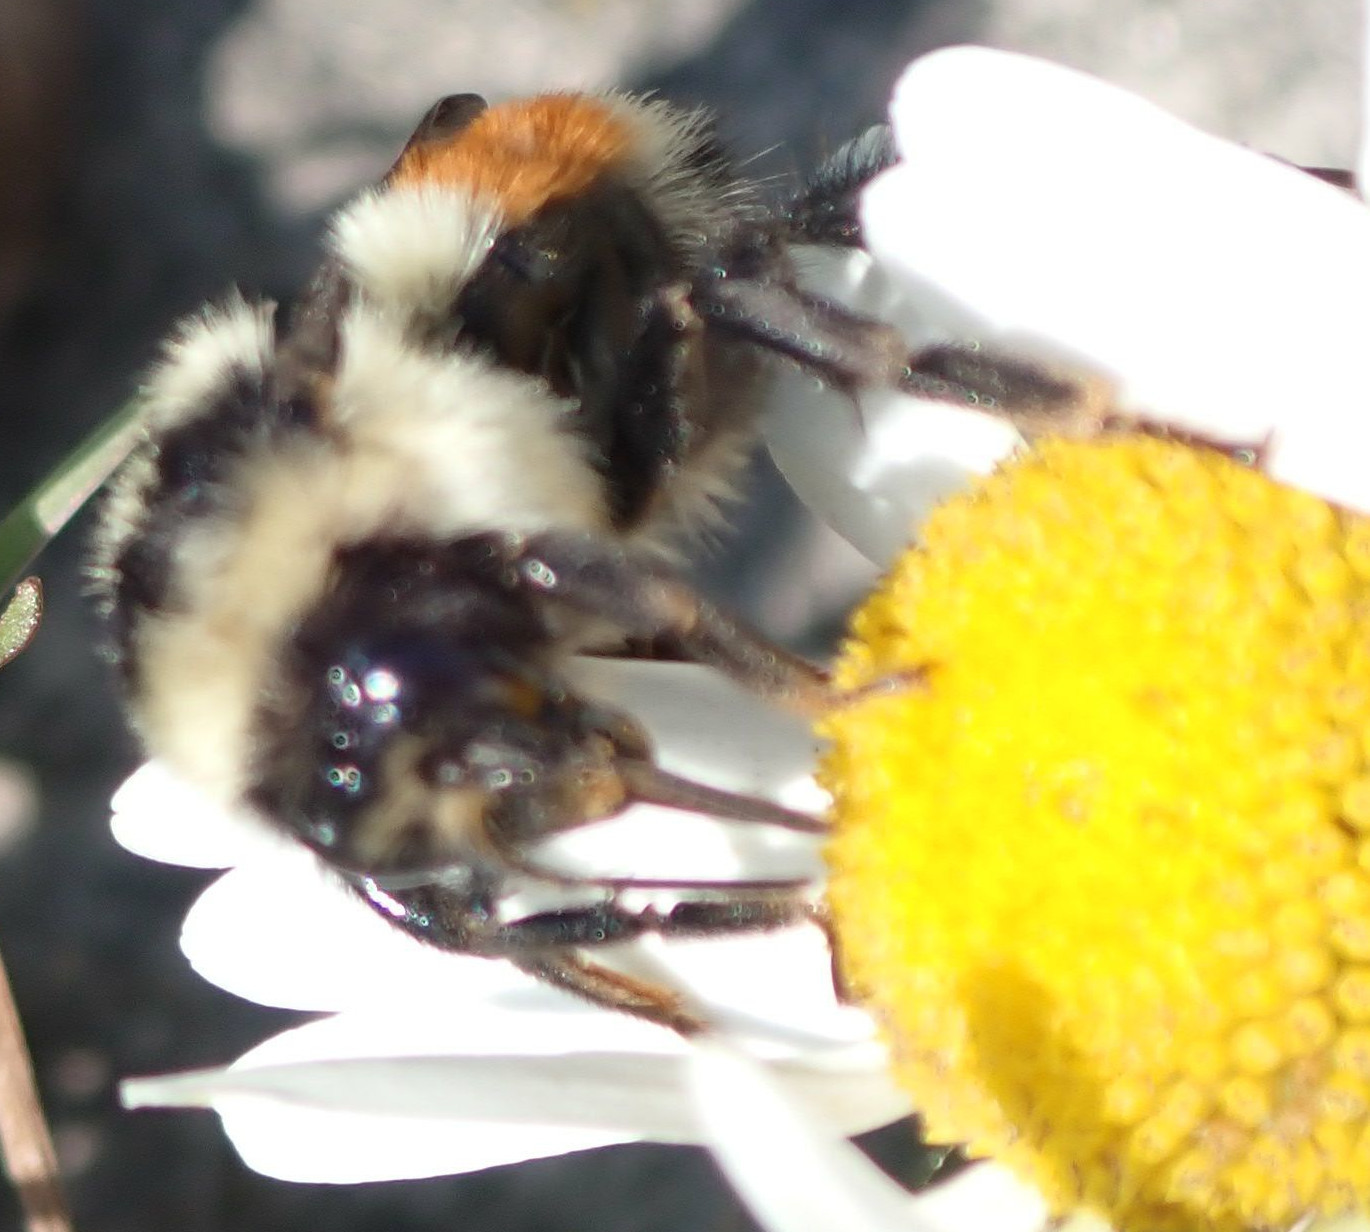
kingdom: Animalia
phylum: Arthropoda
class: Insecta
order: Hymenoptera
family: Apidae
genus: Bombus
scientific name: Bombus ternarius
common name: Tri-colored bumble bee
